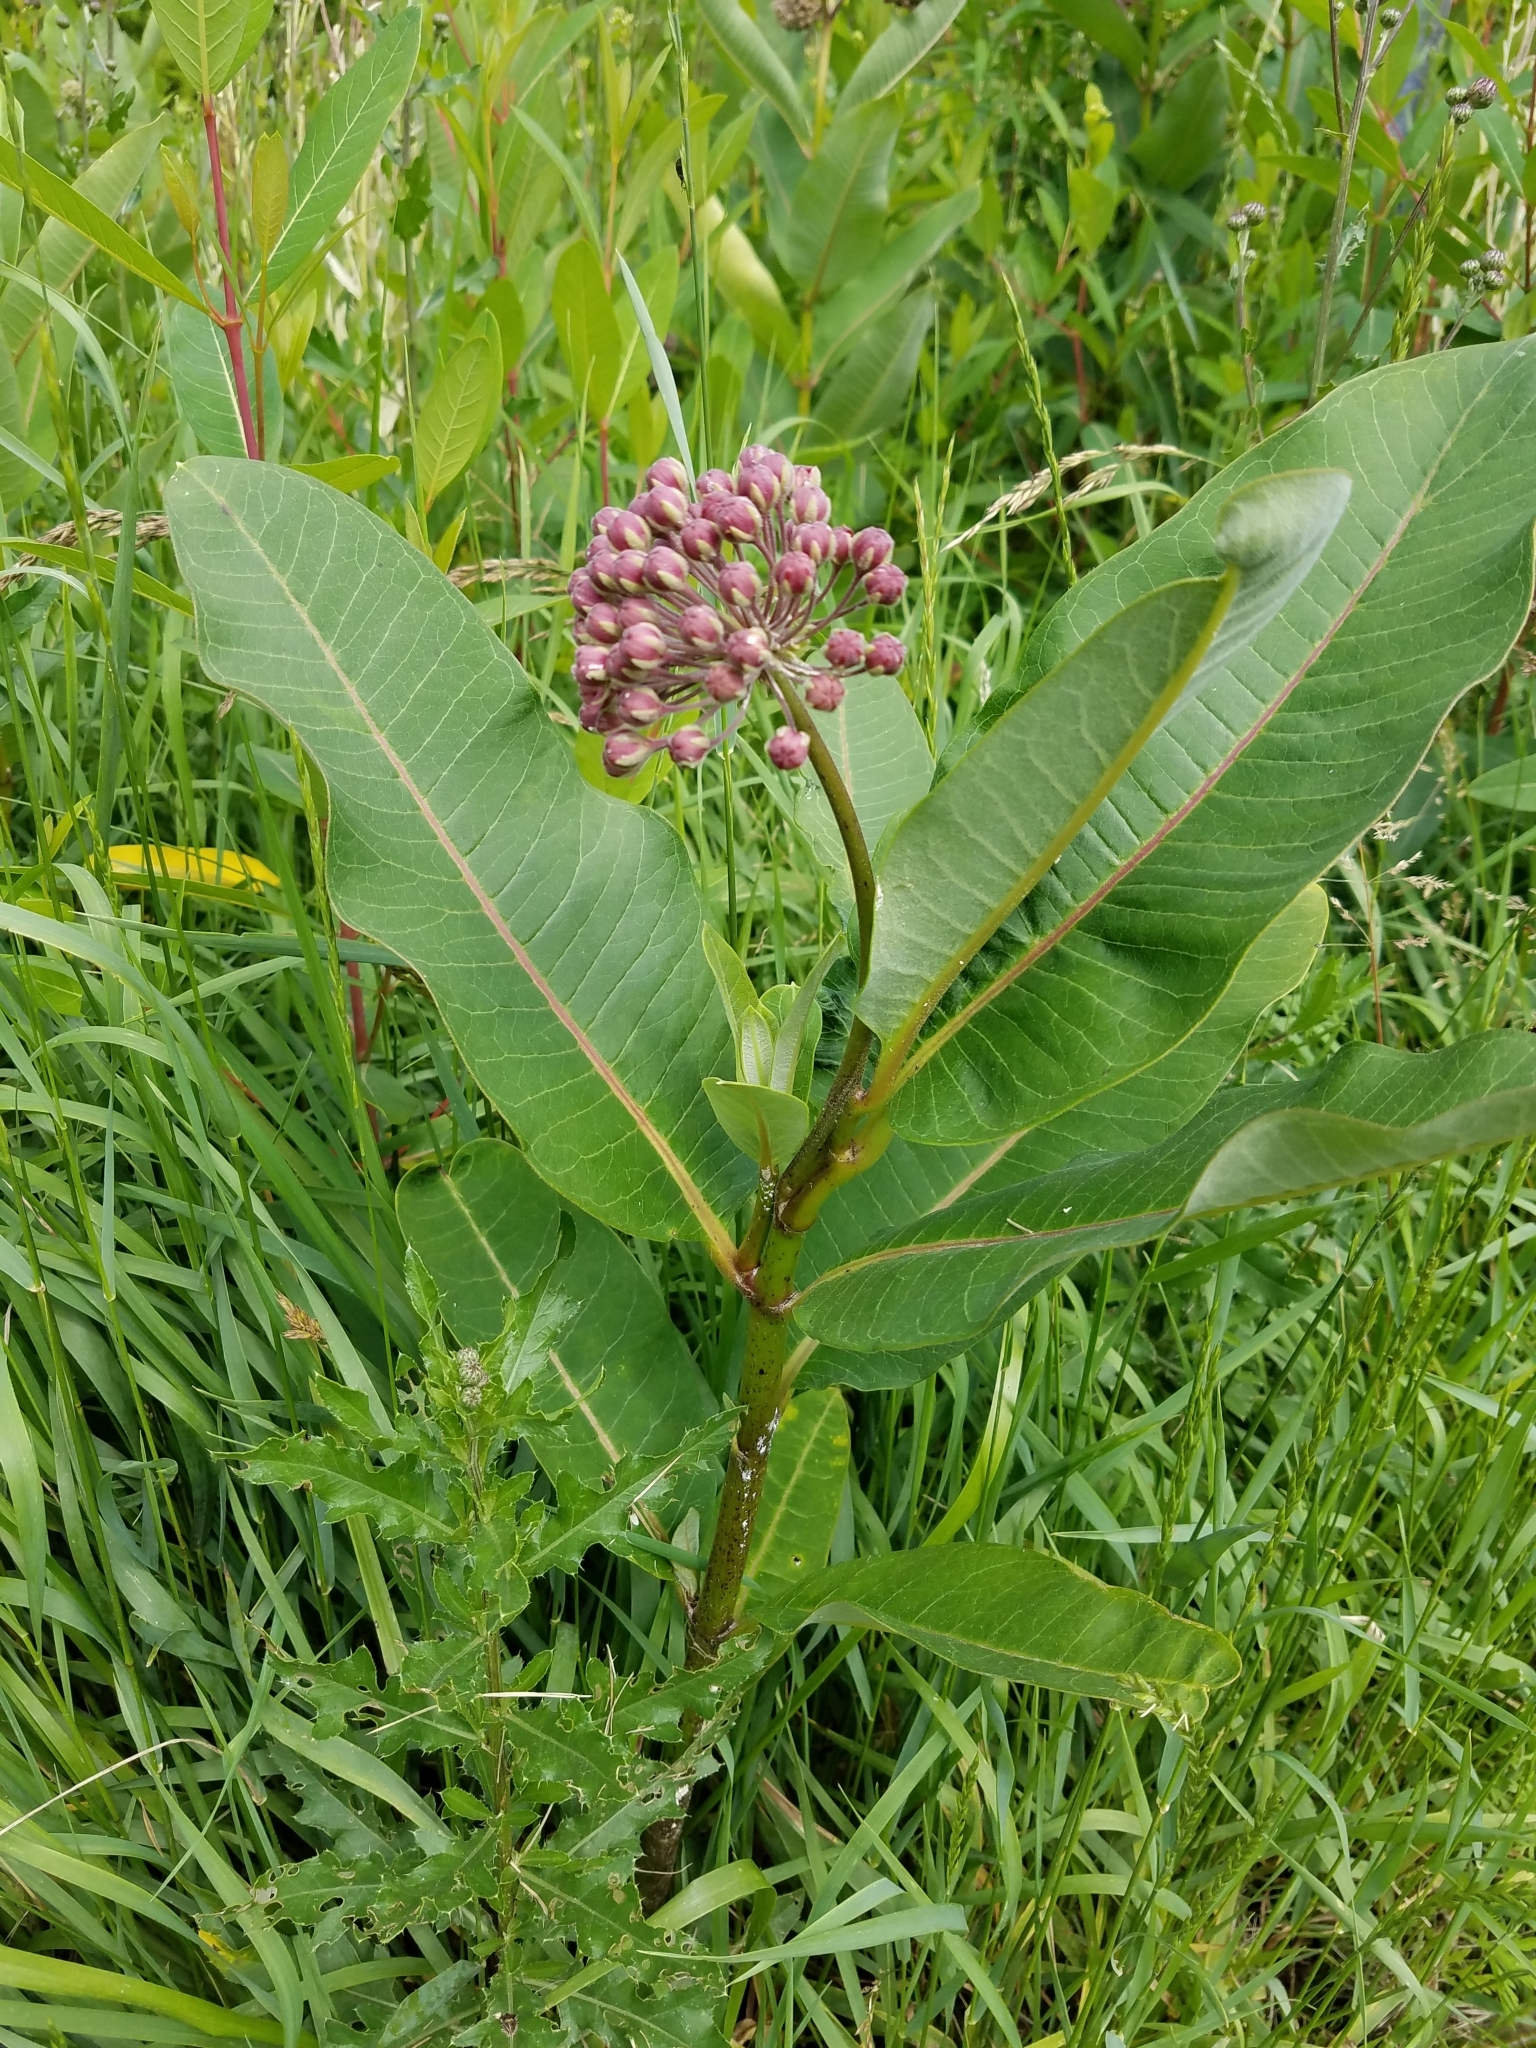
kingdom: Plantae
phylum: Tracheophyta
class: Magnoliopsida
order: Gentianales
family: Apocynaceae
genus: Asclepias
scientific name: Asclepias syriaca
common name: Common milkweed
